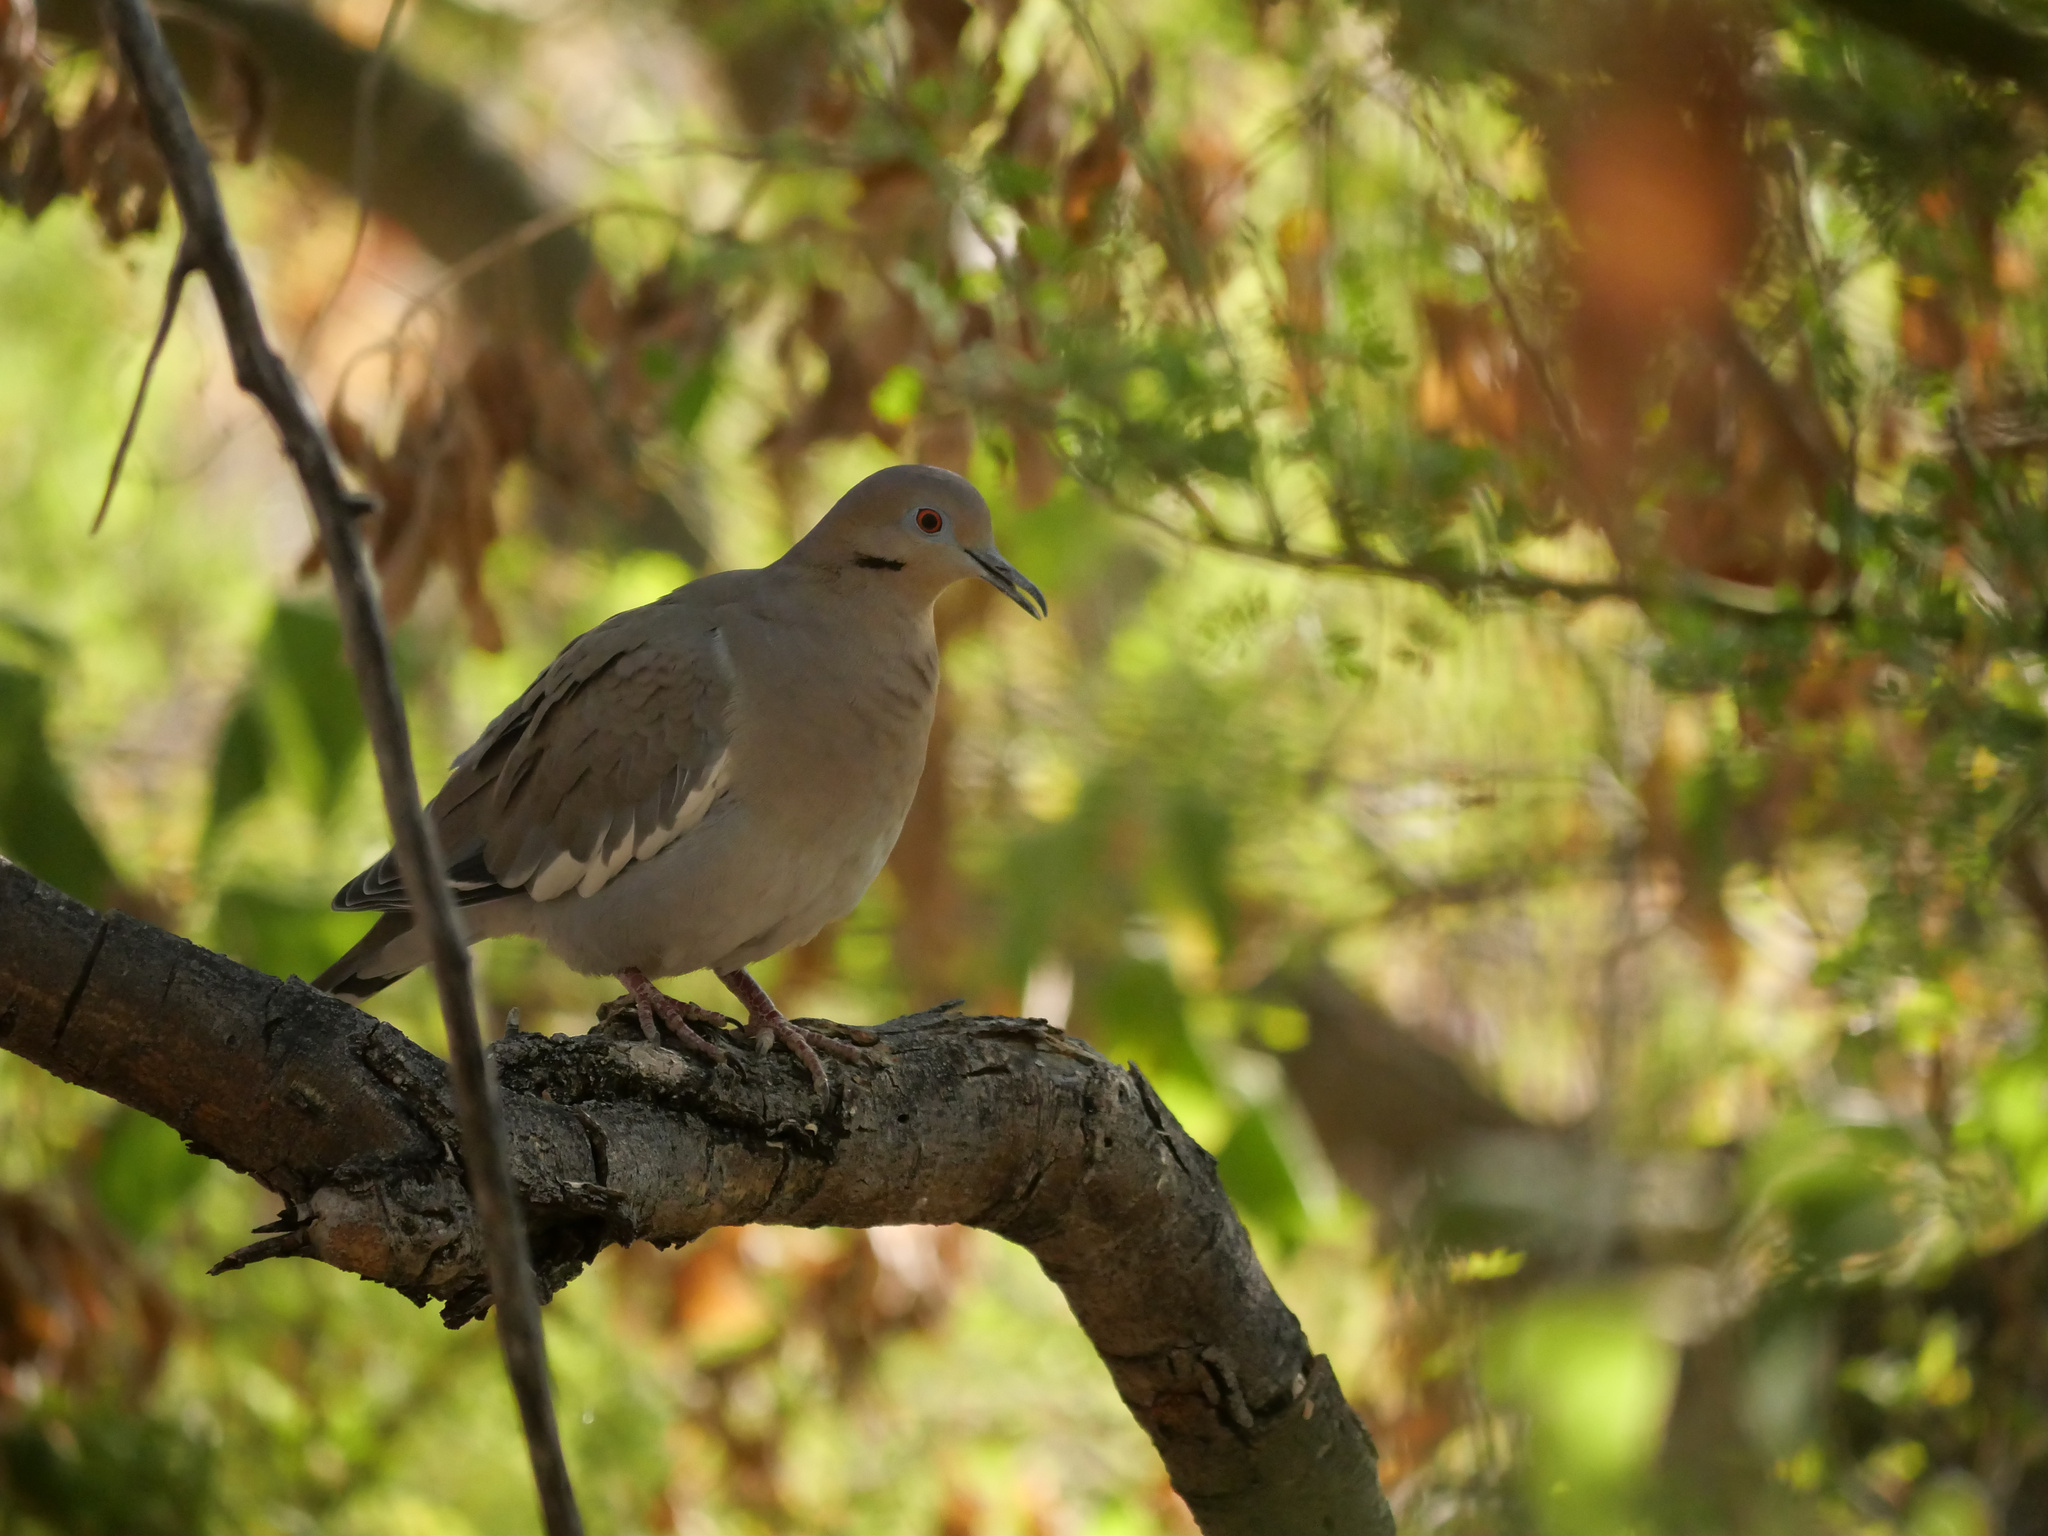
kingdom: Animalia
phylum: Chordata
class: Aves
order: Columbiformes
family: Columbidae
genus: Zenaida
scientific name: Zenaida asiatica
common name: White-winged dove
